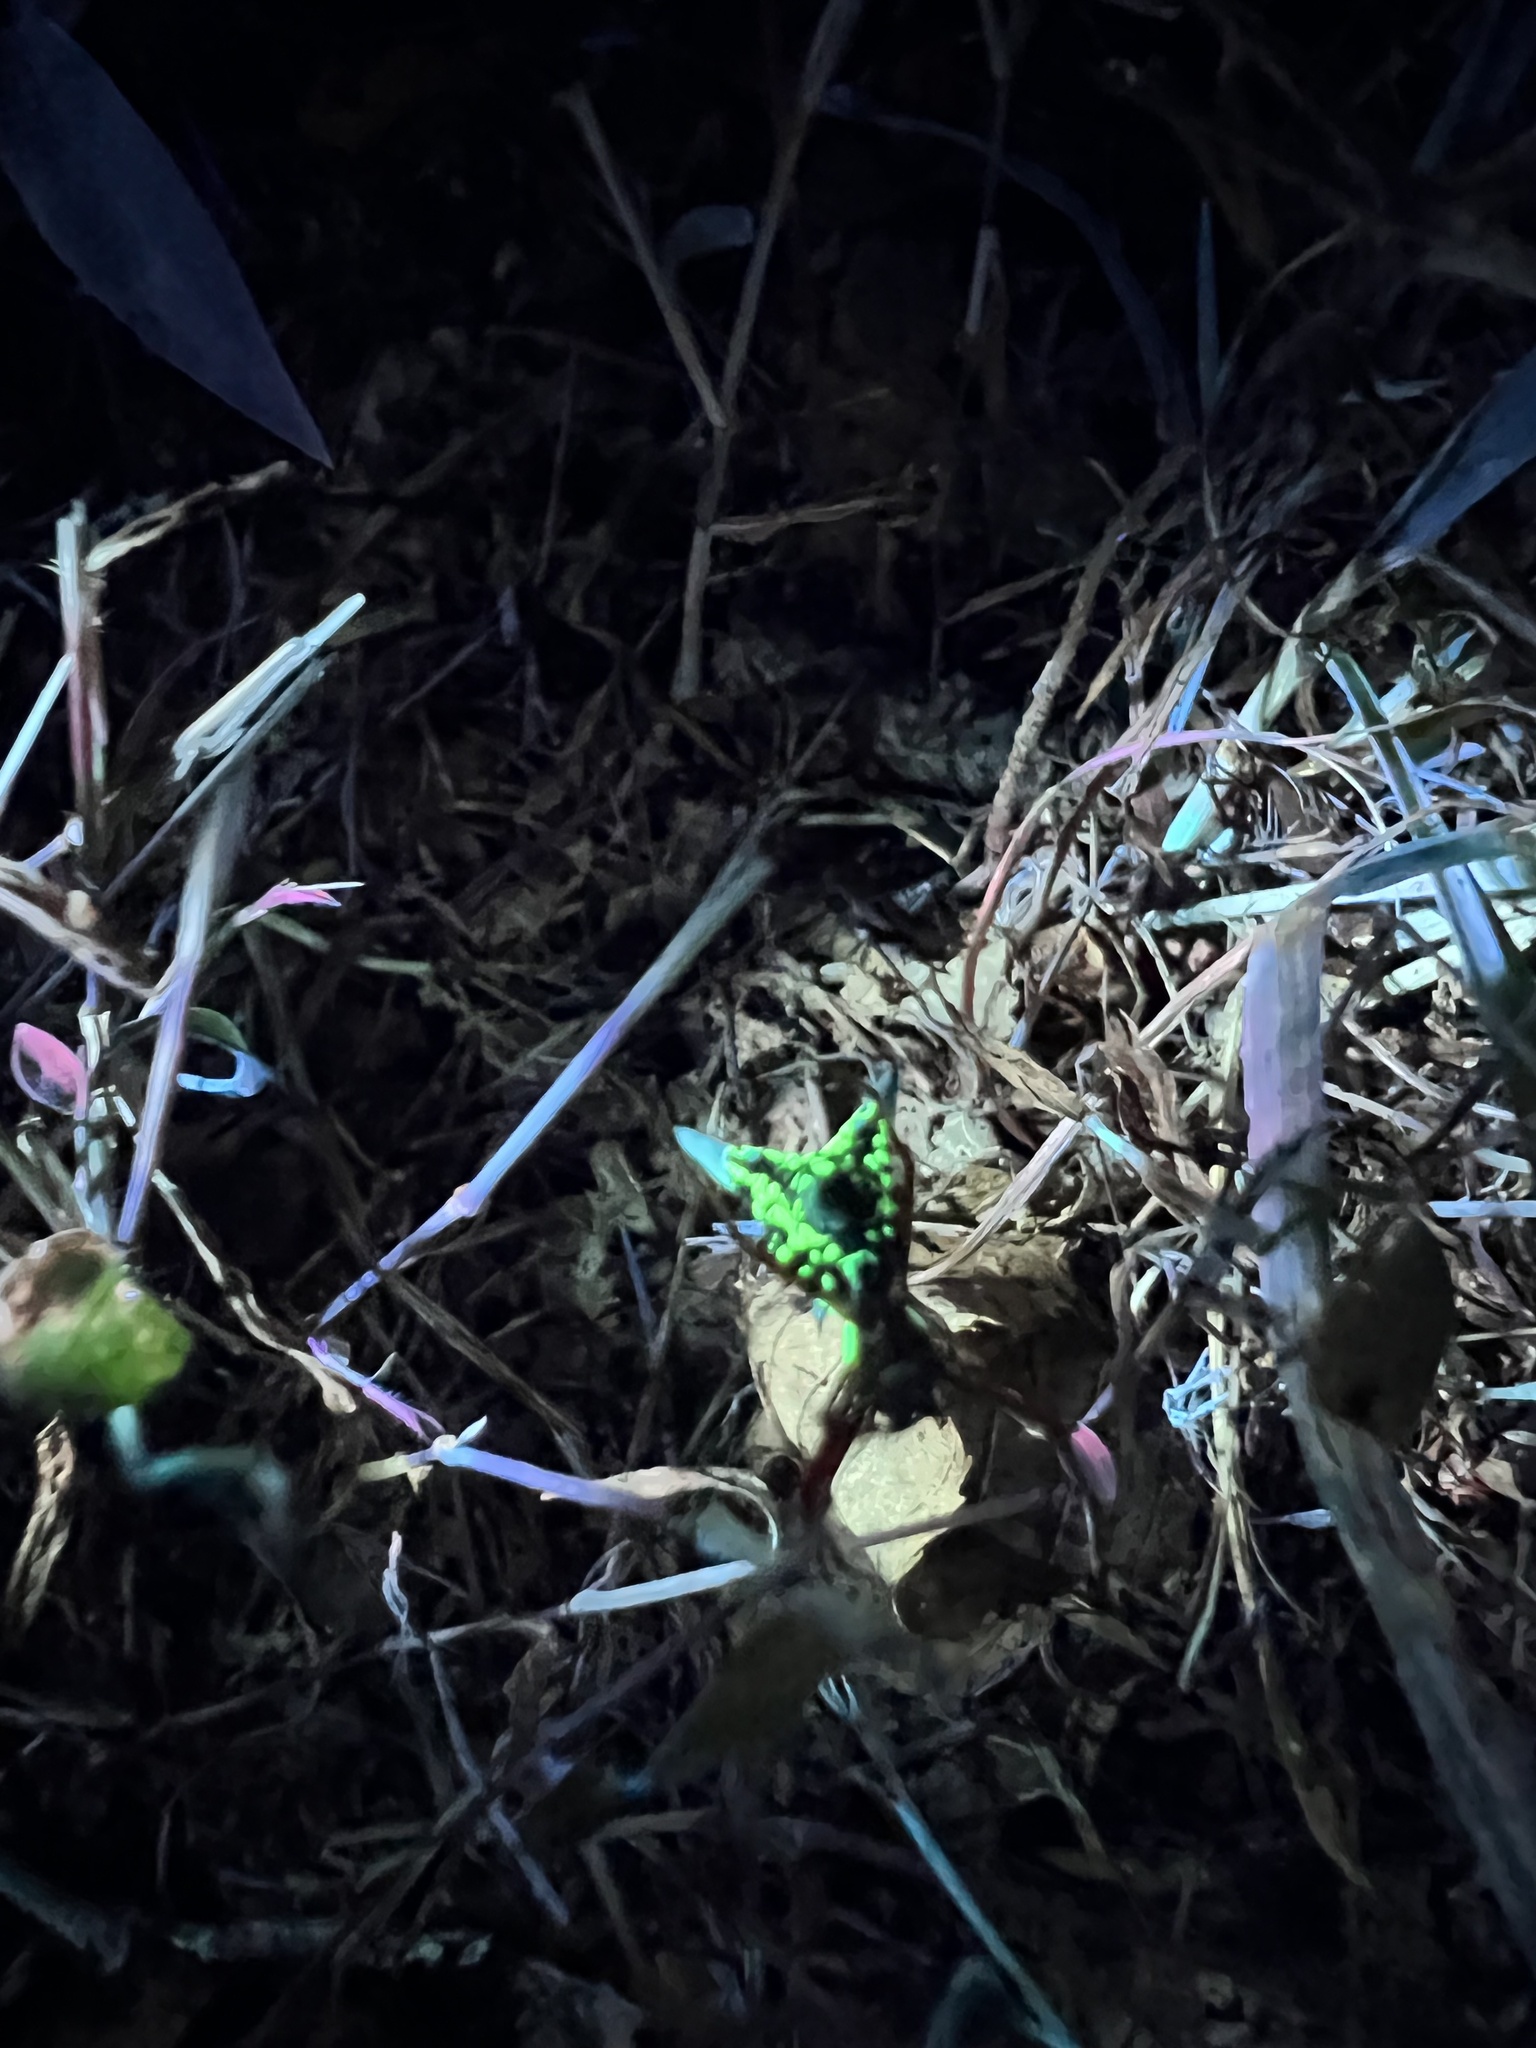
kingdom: Animalia
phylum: Arthropoda
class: Arachnida
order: Araneae
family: Araneidae
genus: Micrathena
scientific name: Micrathena sagittata
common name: Orb weavers
